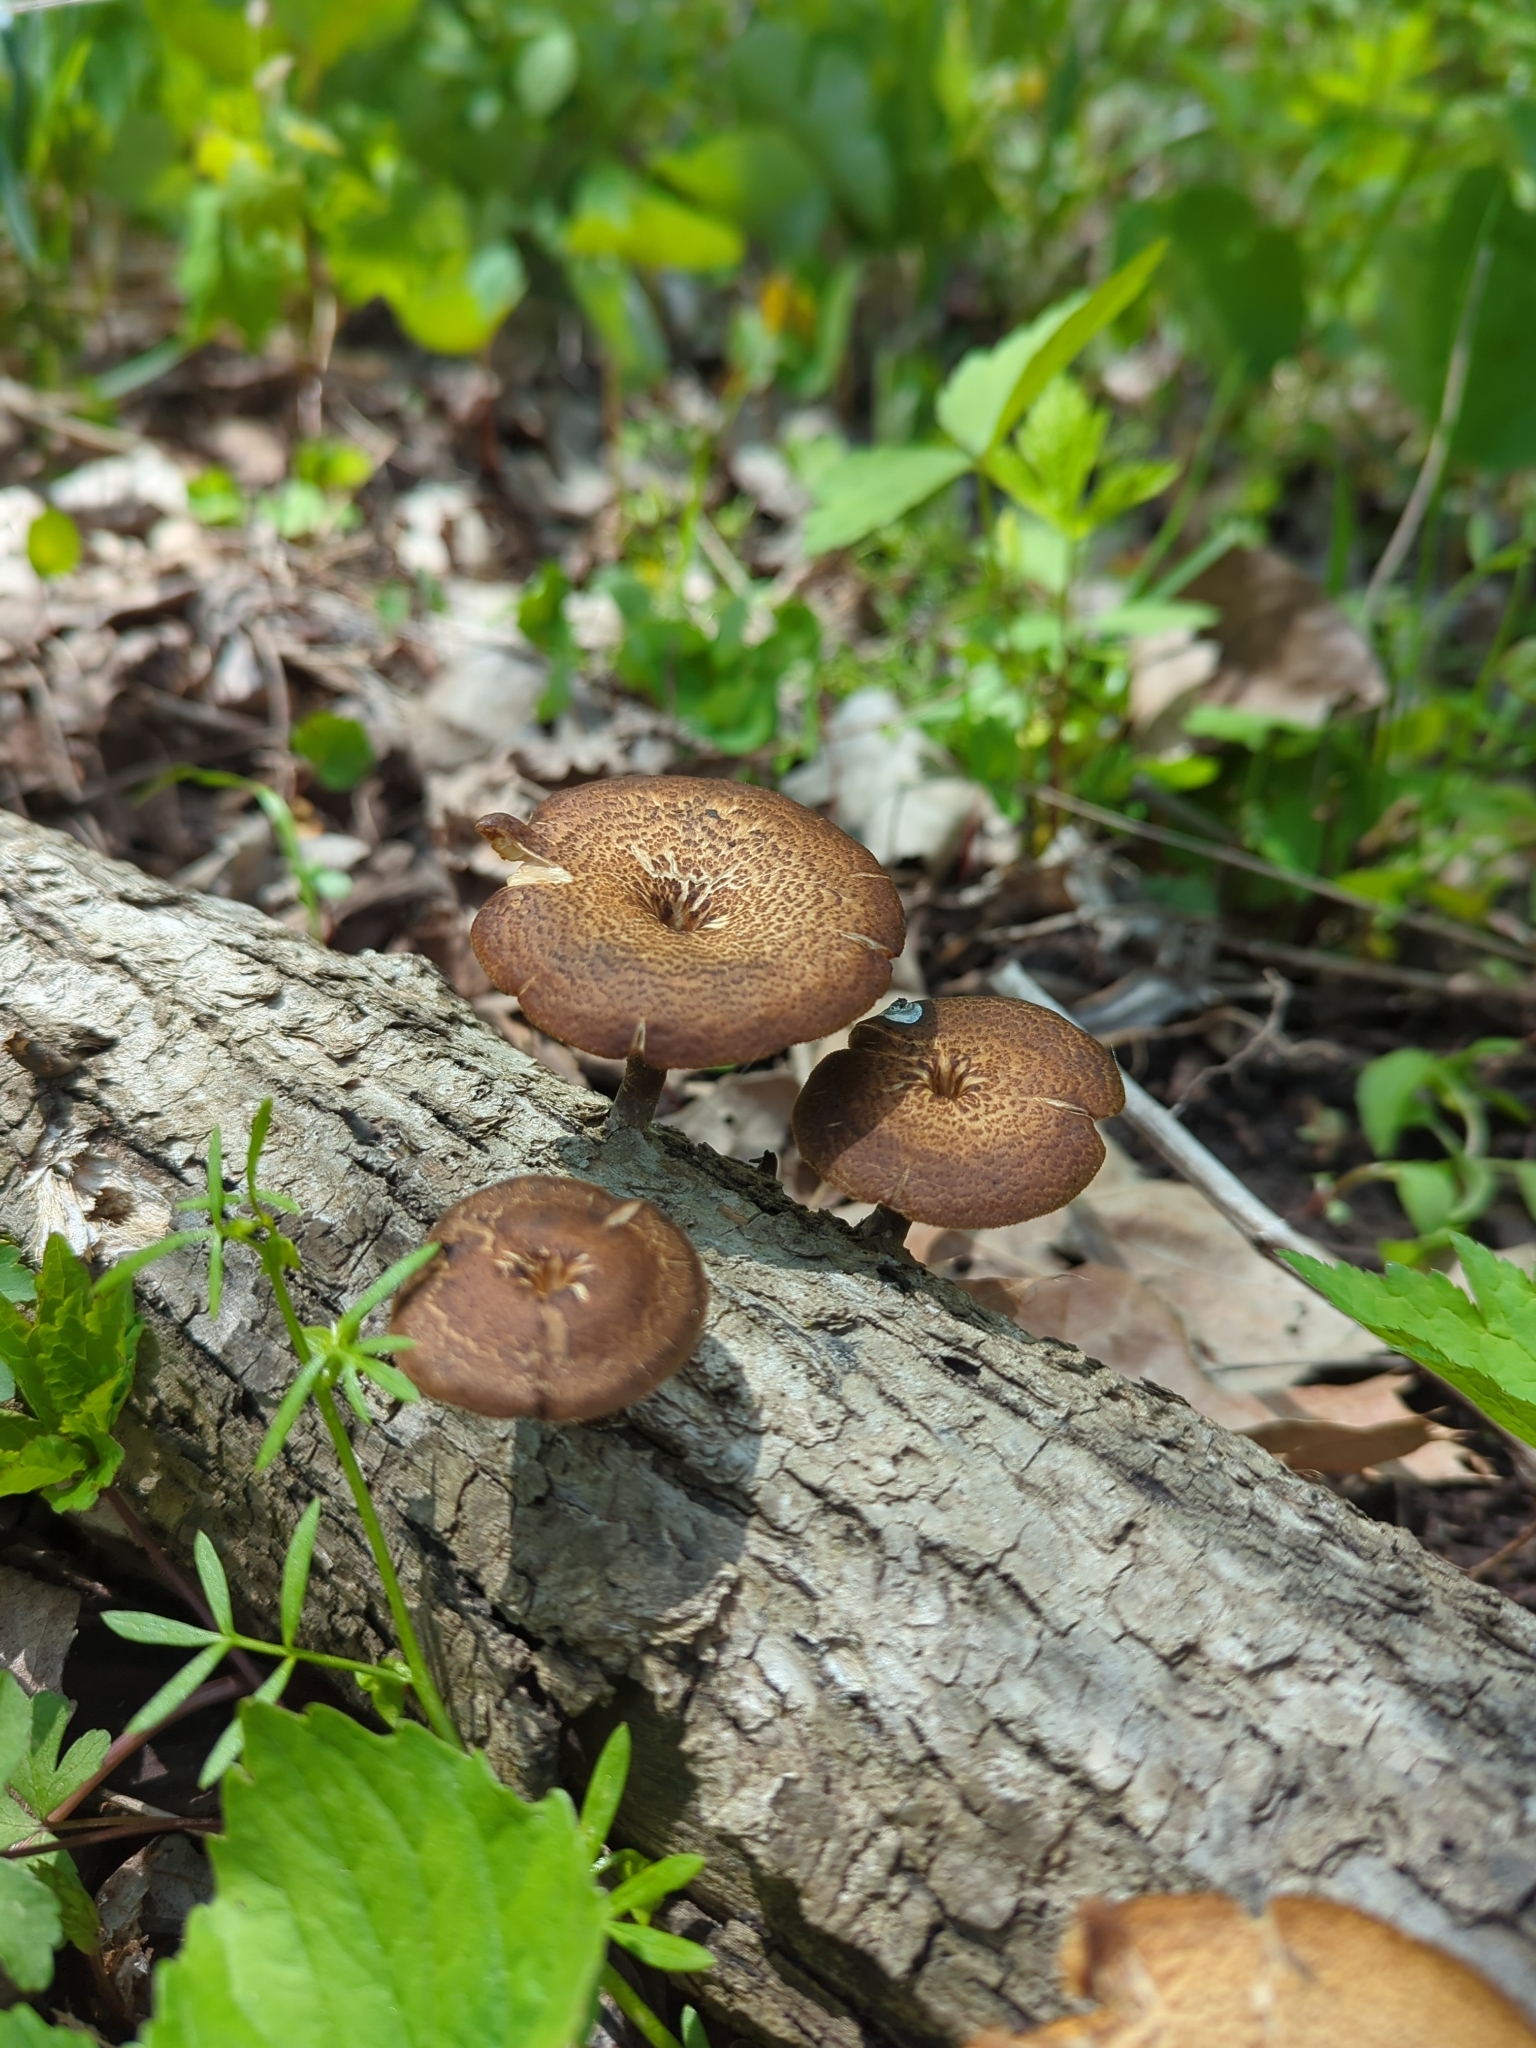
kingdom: Fungi
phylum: Basidiomycota
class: Agaricomycetes
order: Polyporales
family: Polyporaceae
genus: Lentinus
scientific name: Lentinus arcularius
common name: Spring polypore
